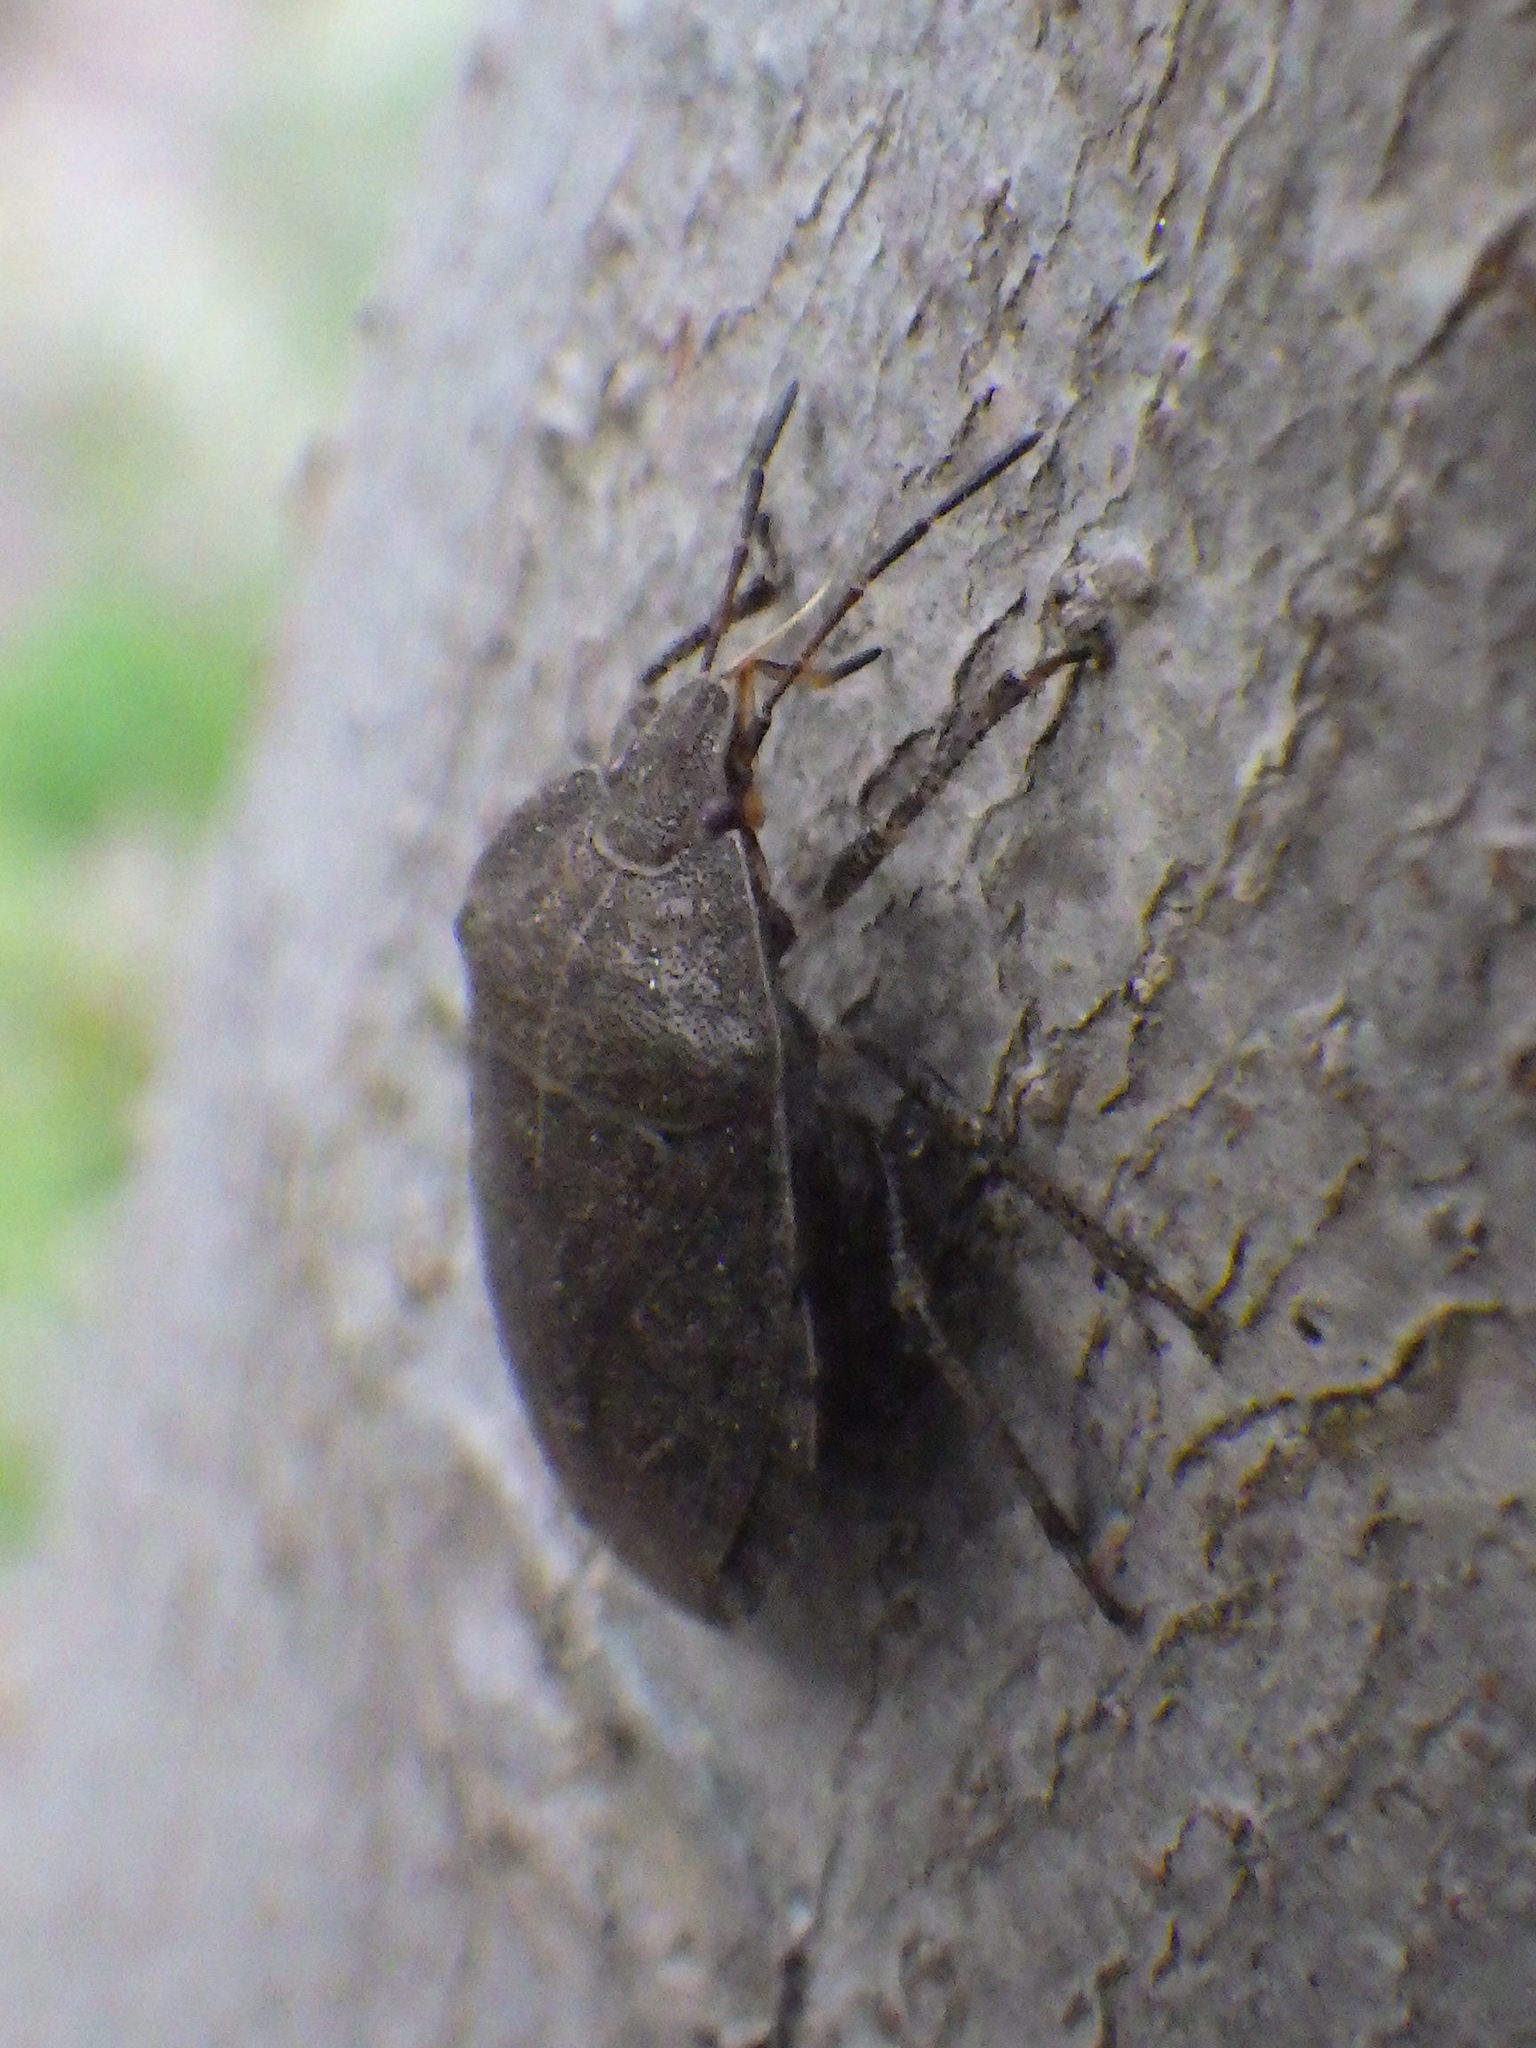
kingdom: Animalia
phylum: Arthropoda
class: Insecta
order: Hemiptera
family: Pentatomidae
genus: Menecles
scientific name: Menecles insertus
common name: Elf shoe stink bug
